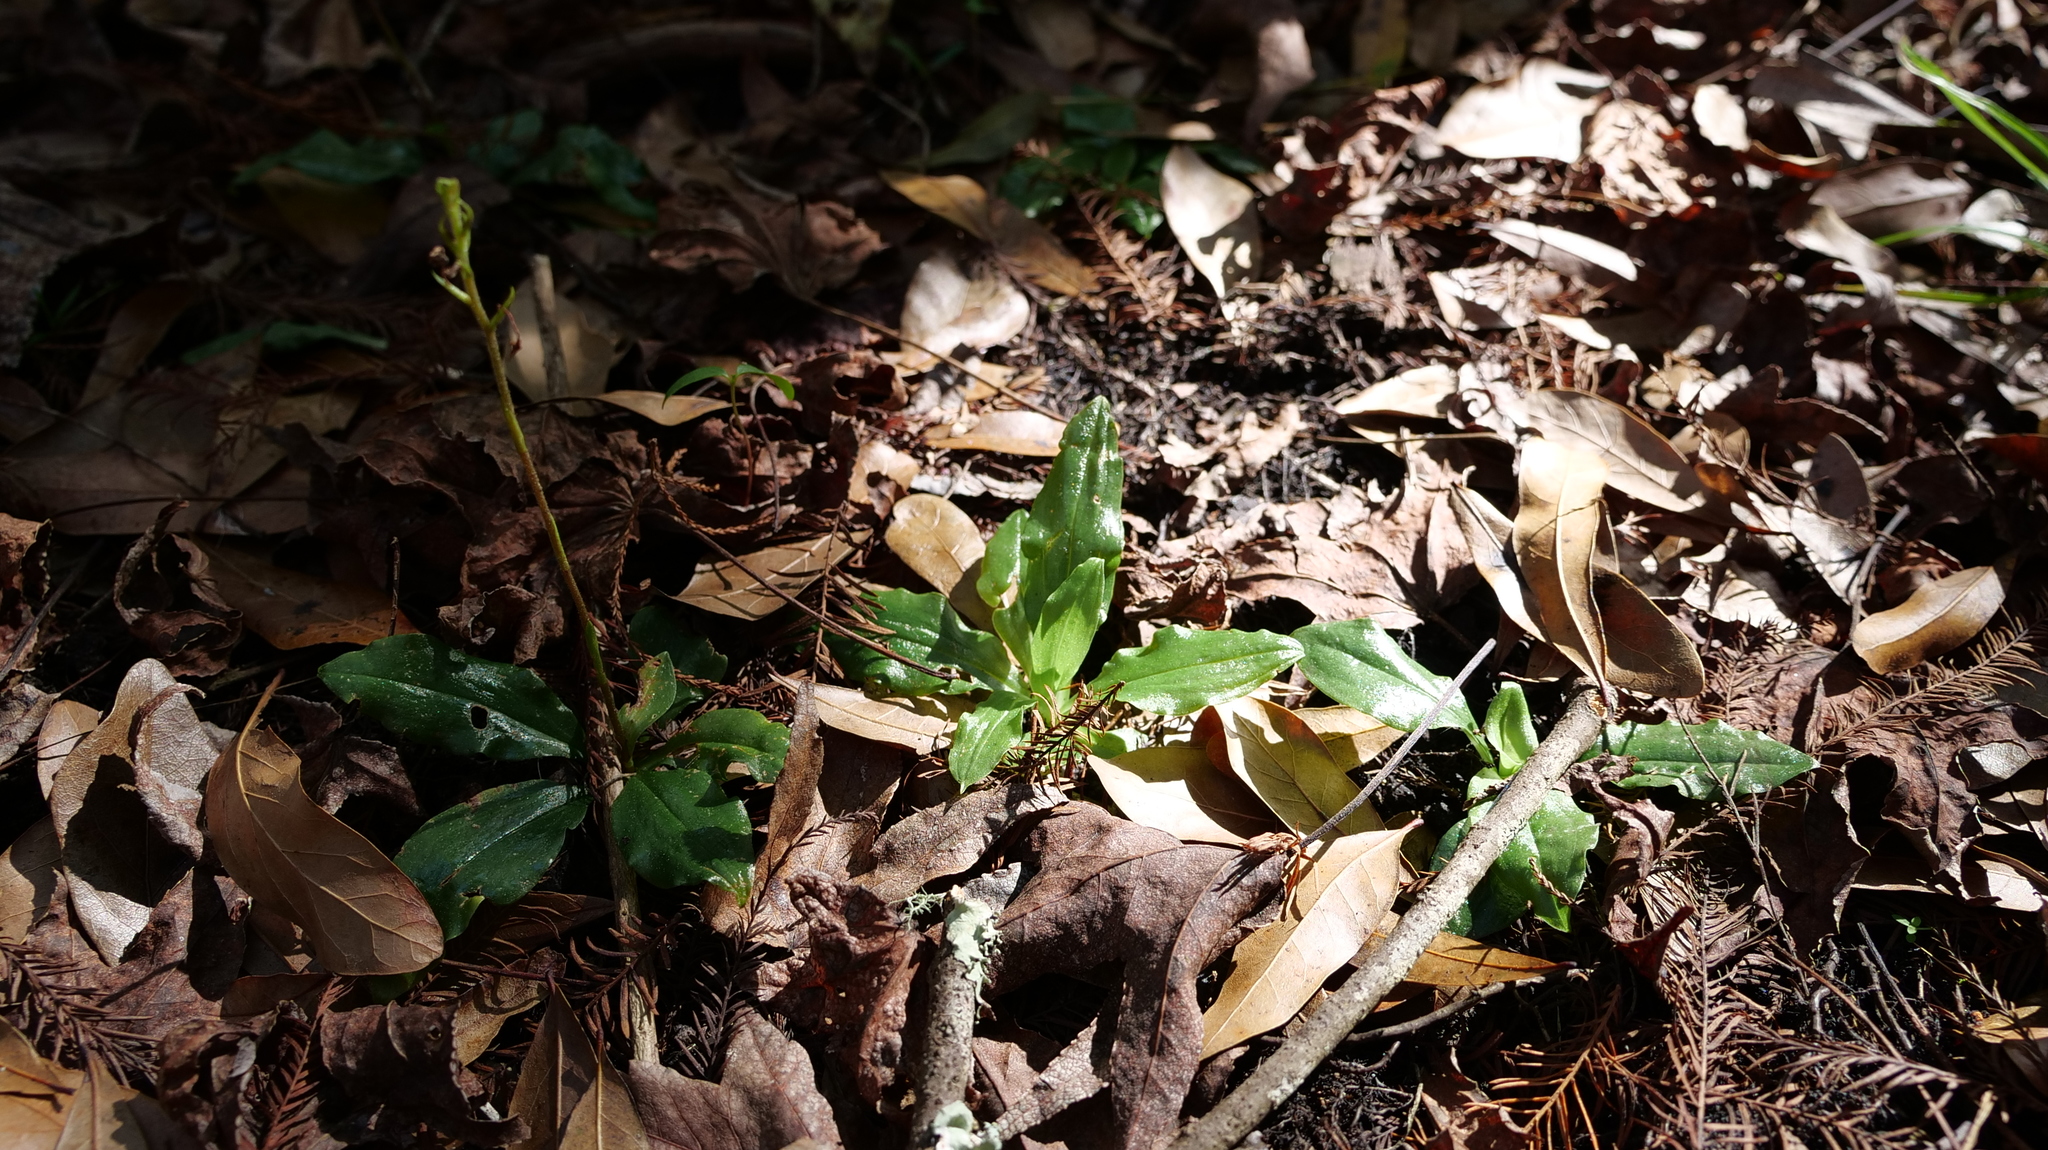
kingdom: Plantae
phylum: Tracheophyta
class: Liliopsida
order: Asparagales
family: Orchidaceae
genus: Ponthieva
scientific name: Ponthieva racemosa
